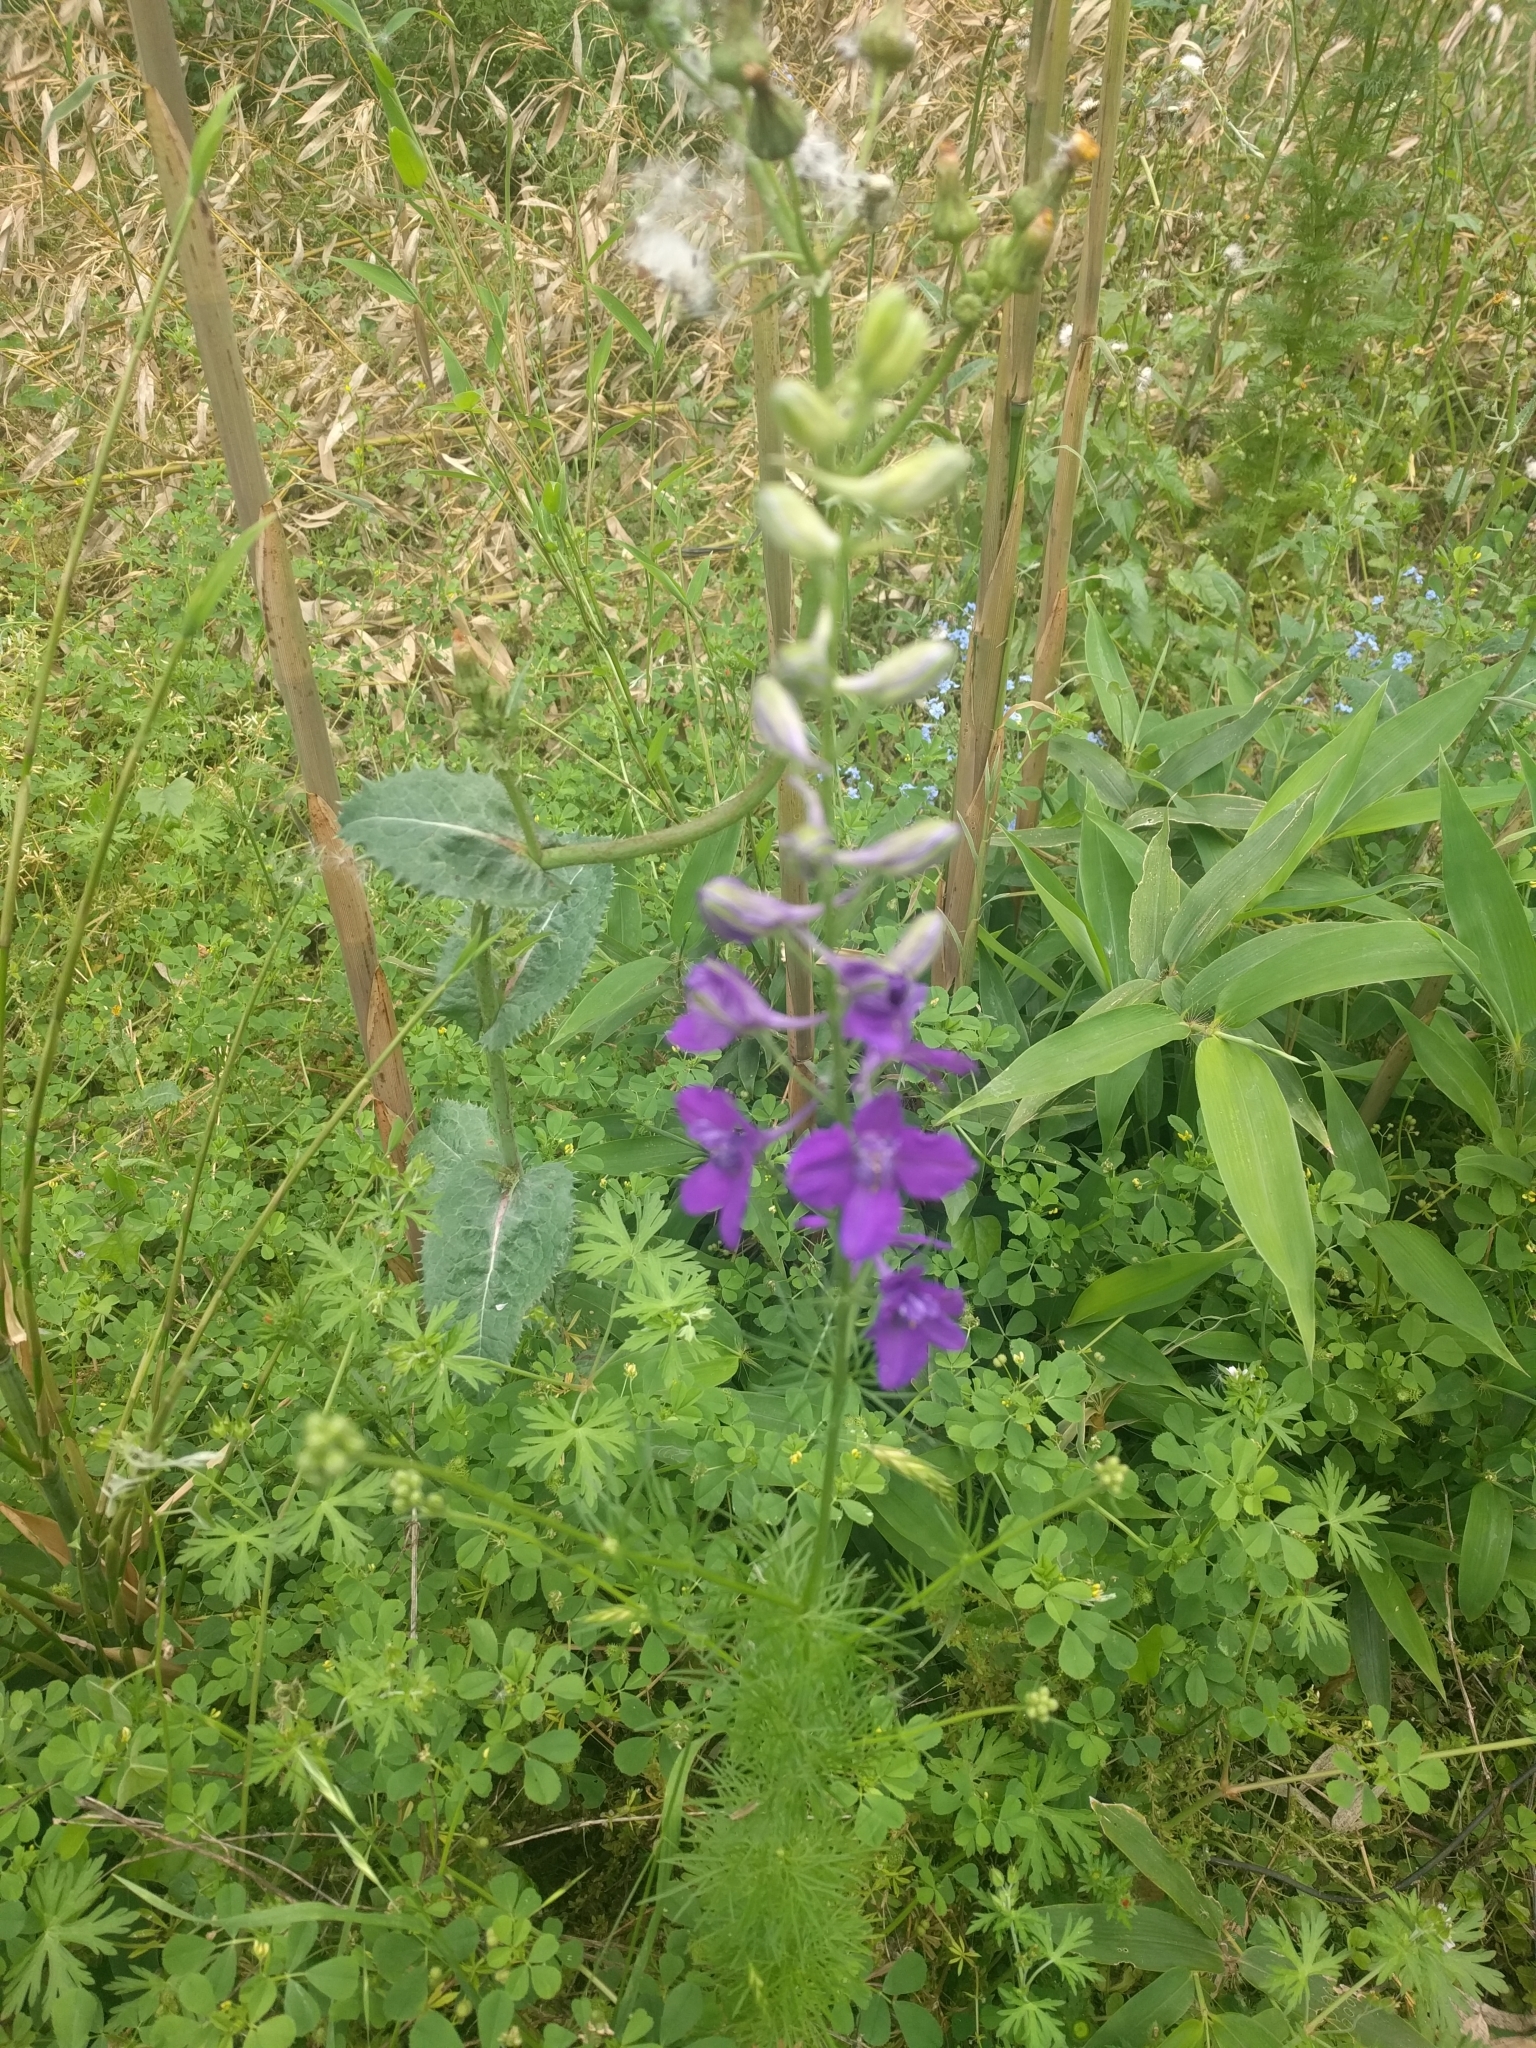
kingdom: Plantae
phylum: Tracheophyta
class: Magnoliopsida
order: Ranunculales
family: Ranunculaceae
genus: Delphinium
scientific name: Delphinium ajacis
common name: Doubtful knight's-spur
